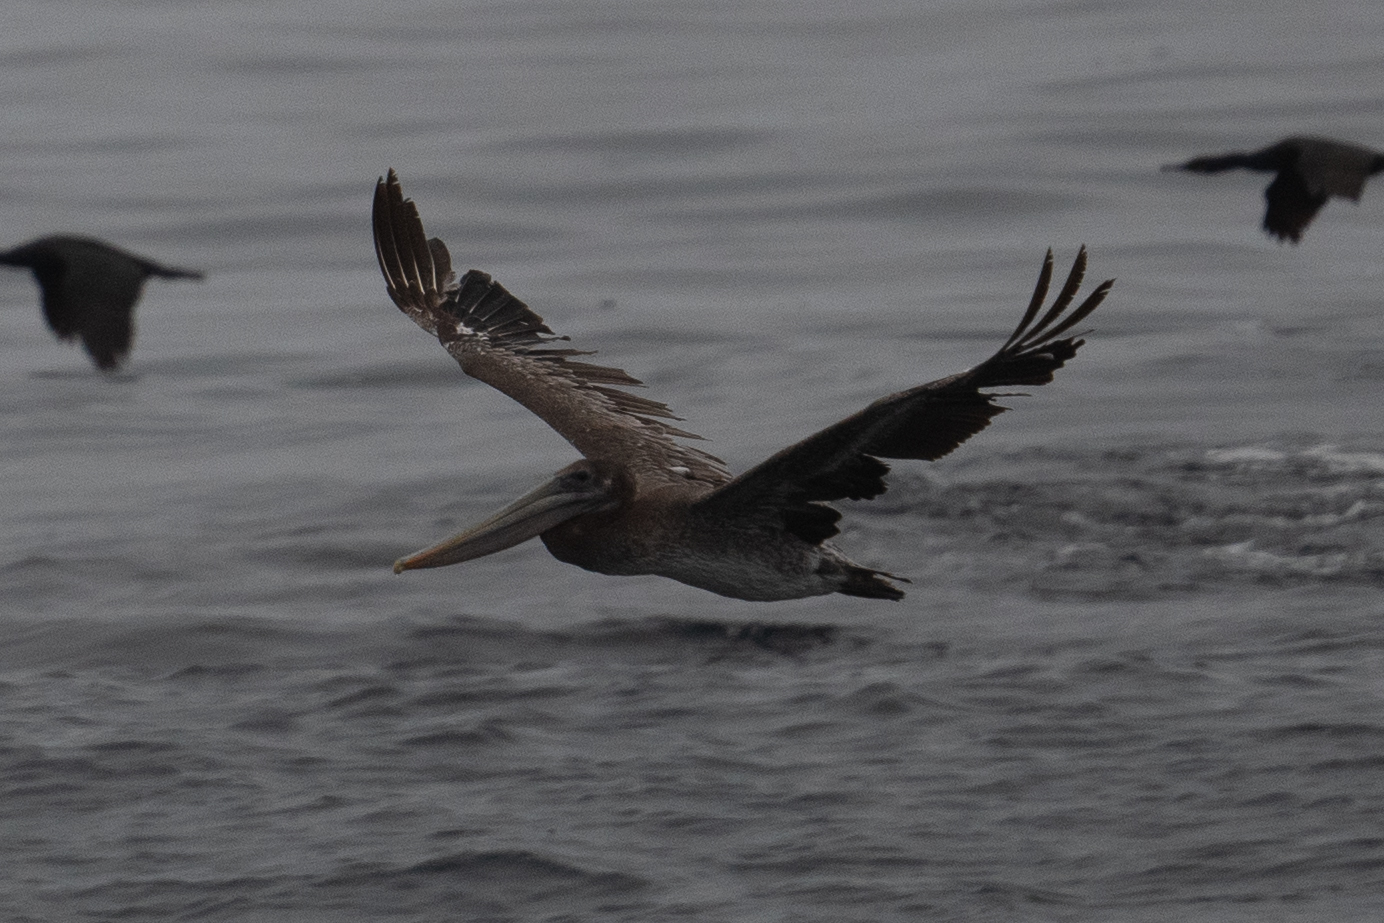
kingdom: Animalia
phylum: Chordata
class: Aves
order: Pelecaniformes
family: Pelecanidae
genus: Pelecanus
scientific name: Pelecanus occidentalis
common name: Brown pelican
